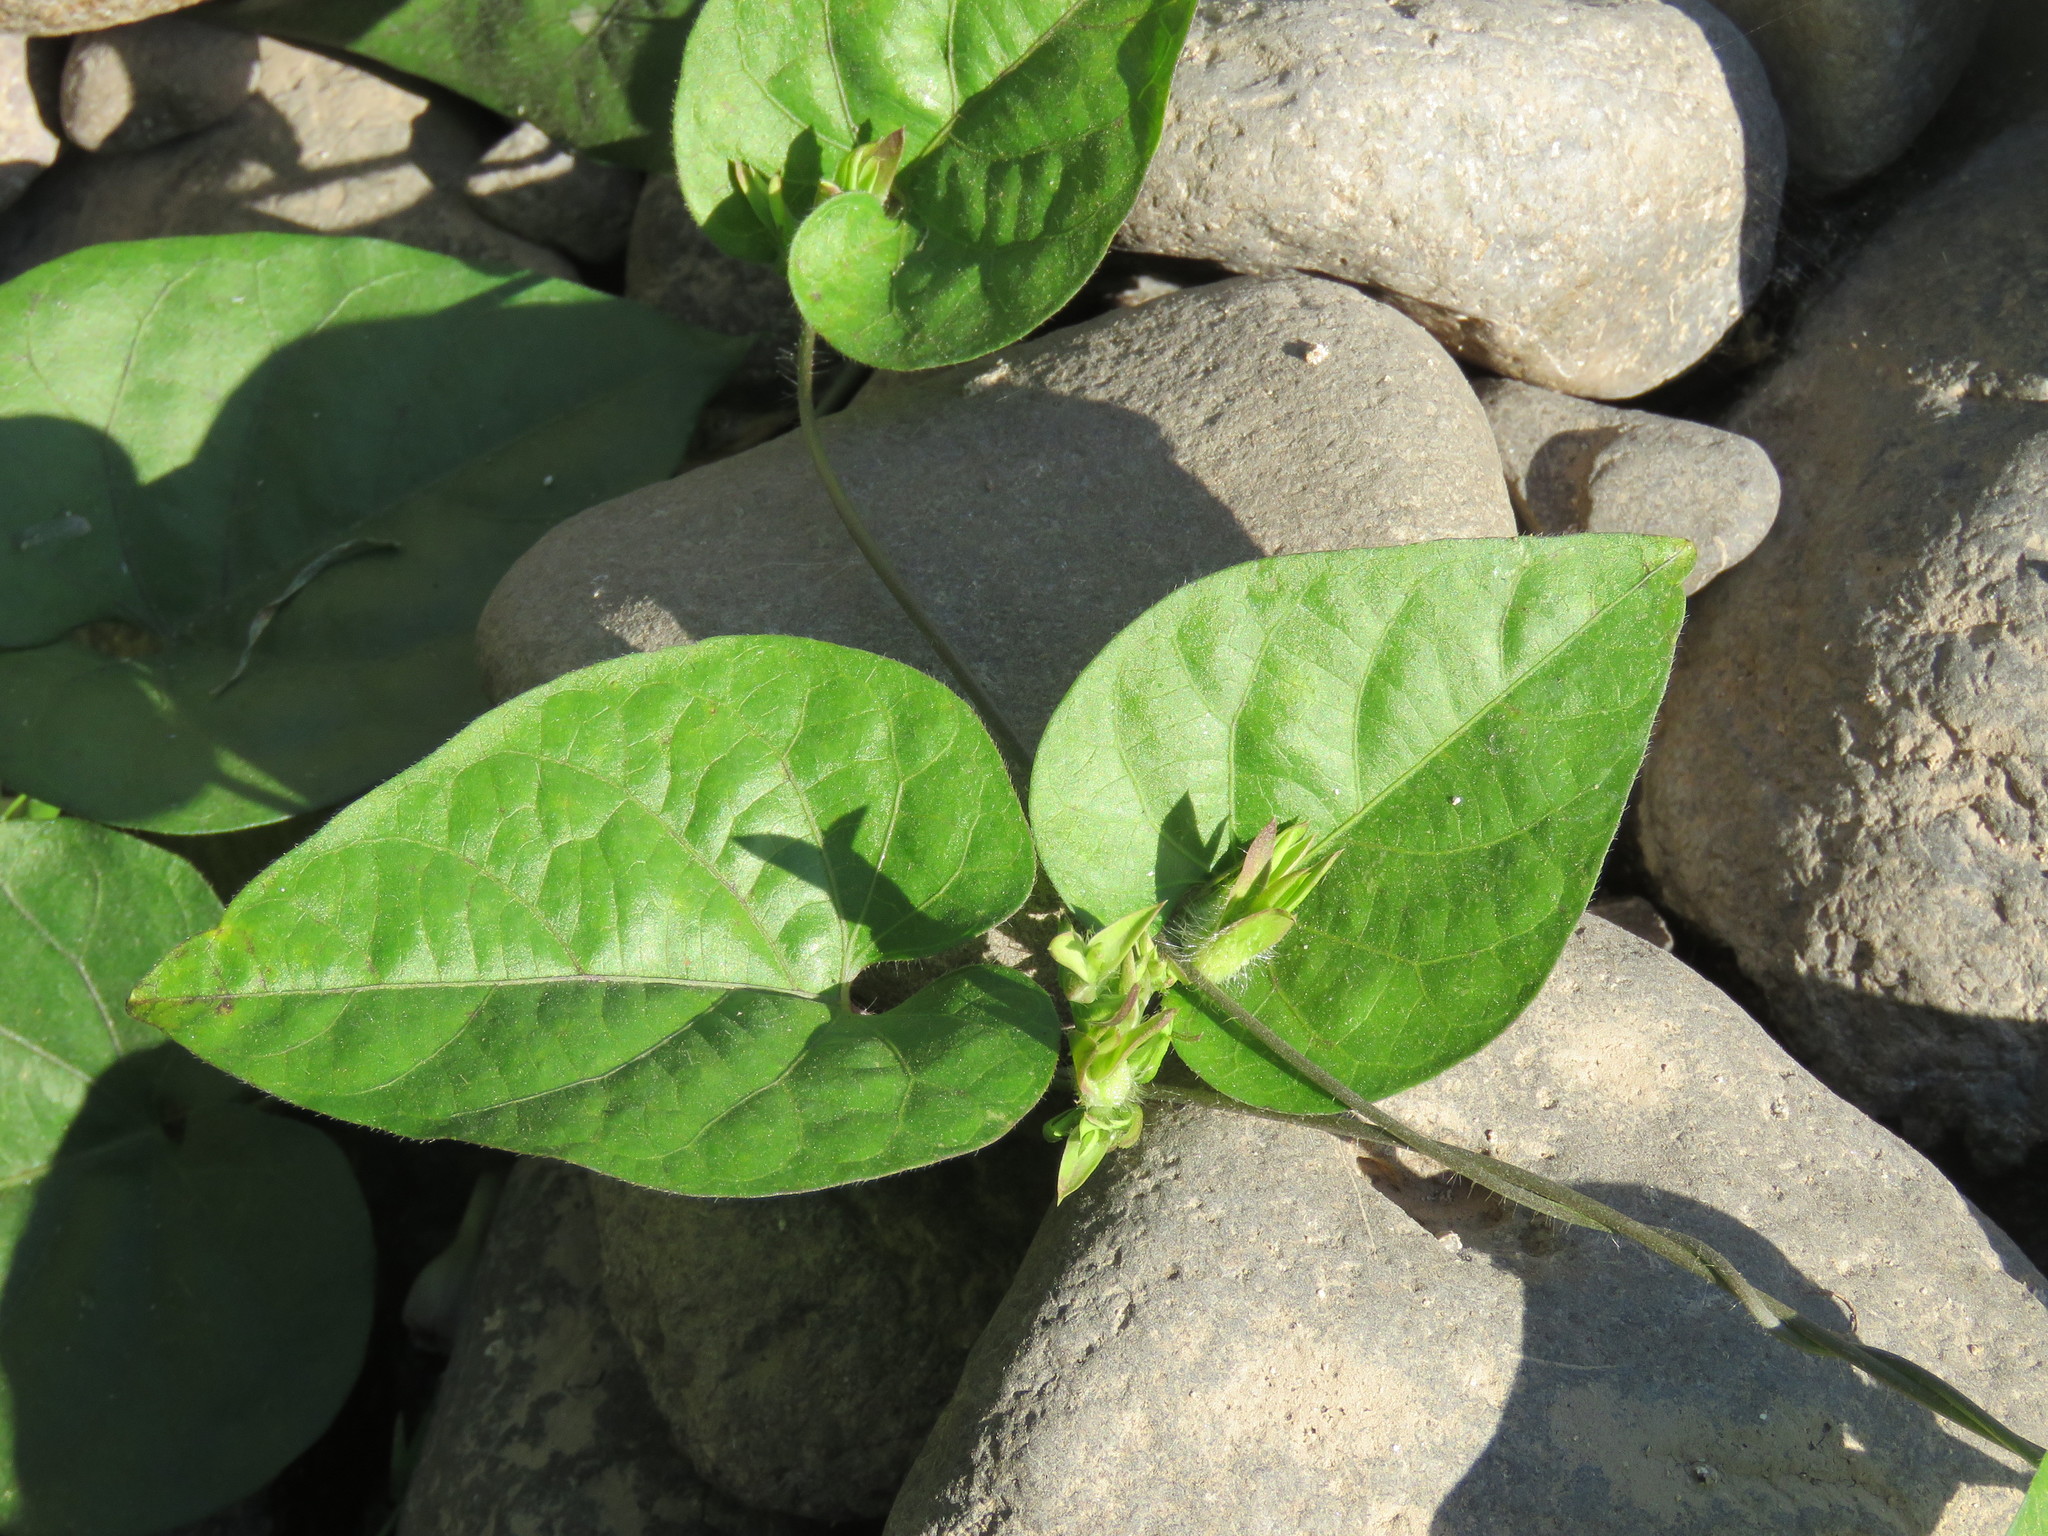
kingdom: Plantae
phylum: Tracheophyta
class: Magnoliopsida
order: Solanales
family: Convolvulaceae
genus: Ipomoea
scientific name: Ipomoea meyeri
